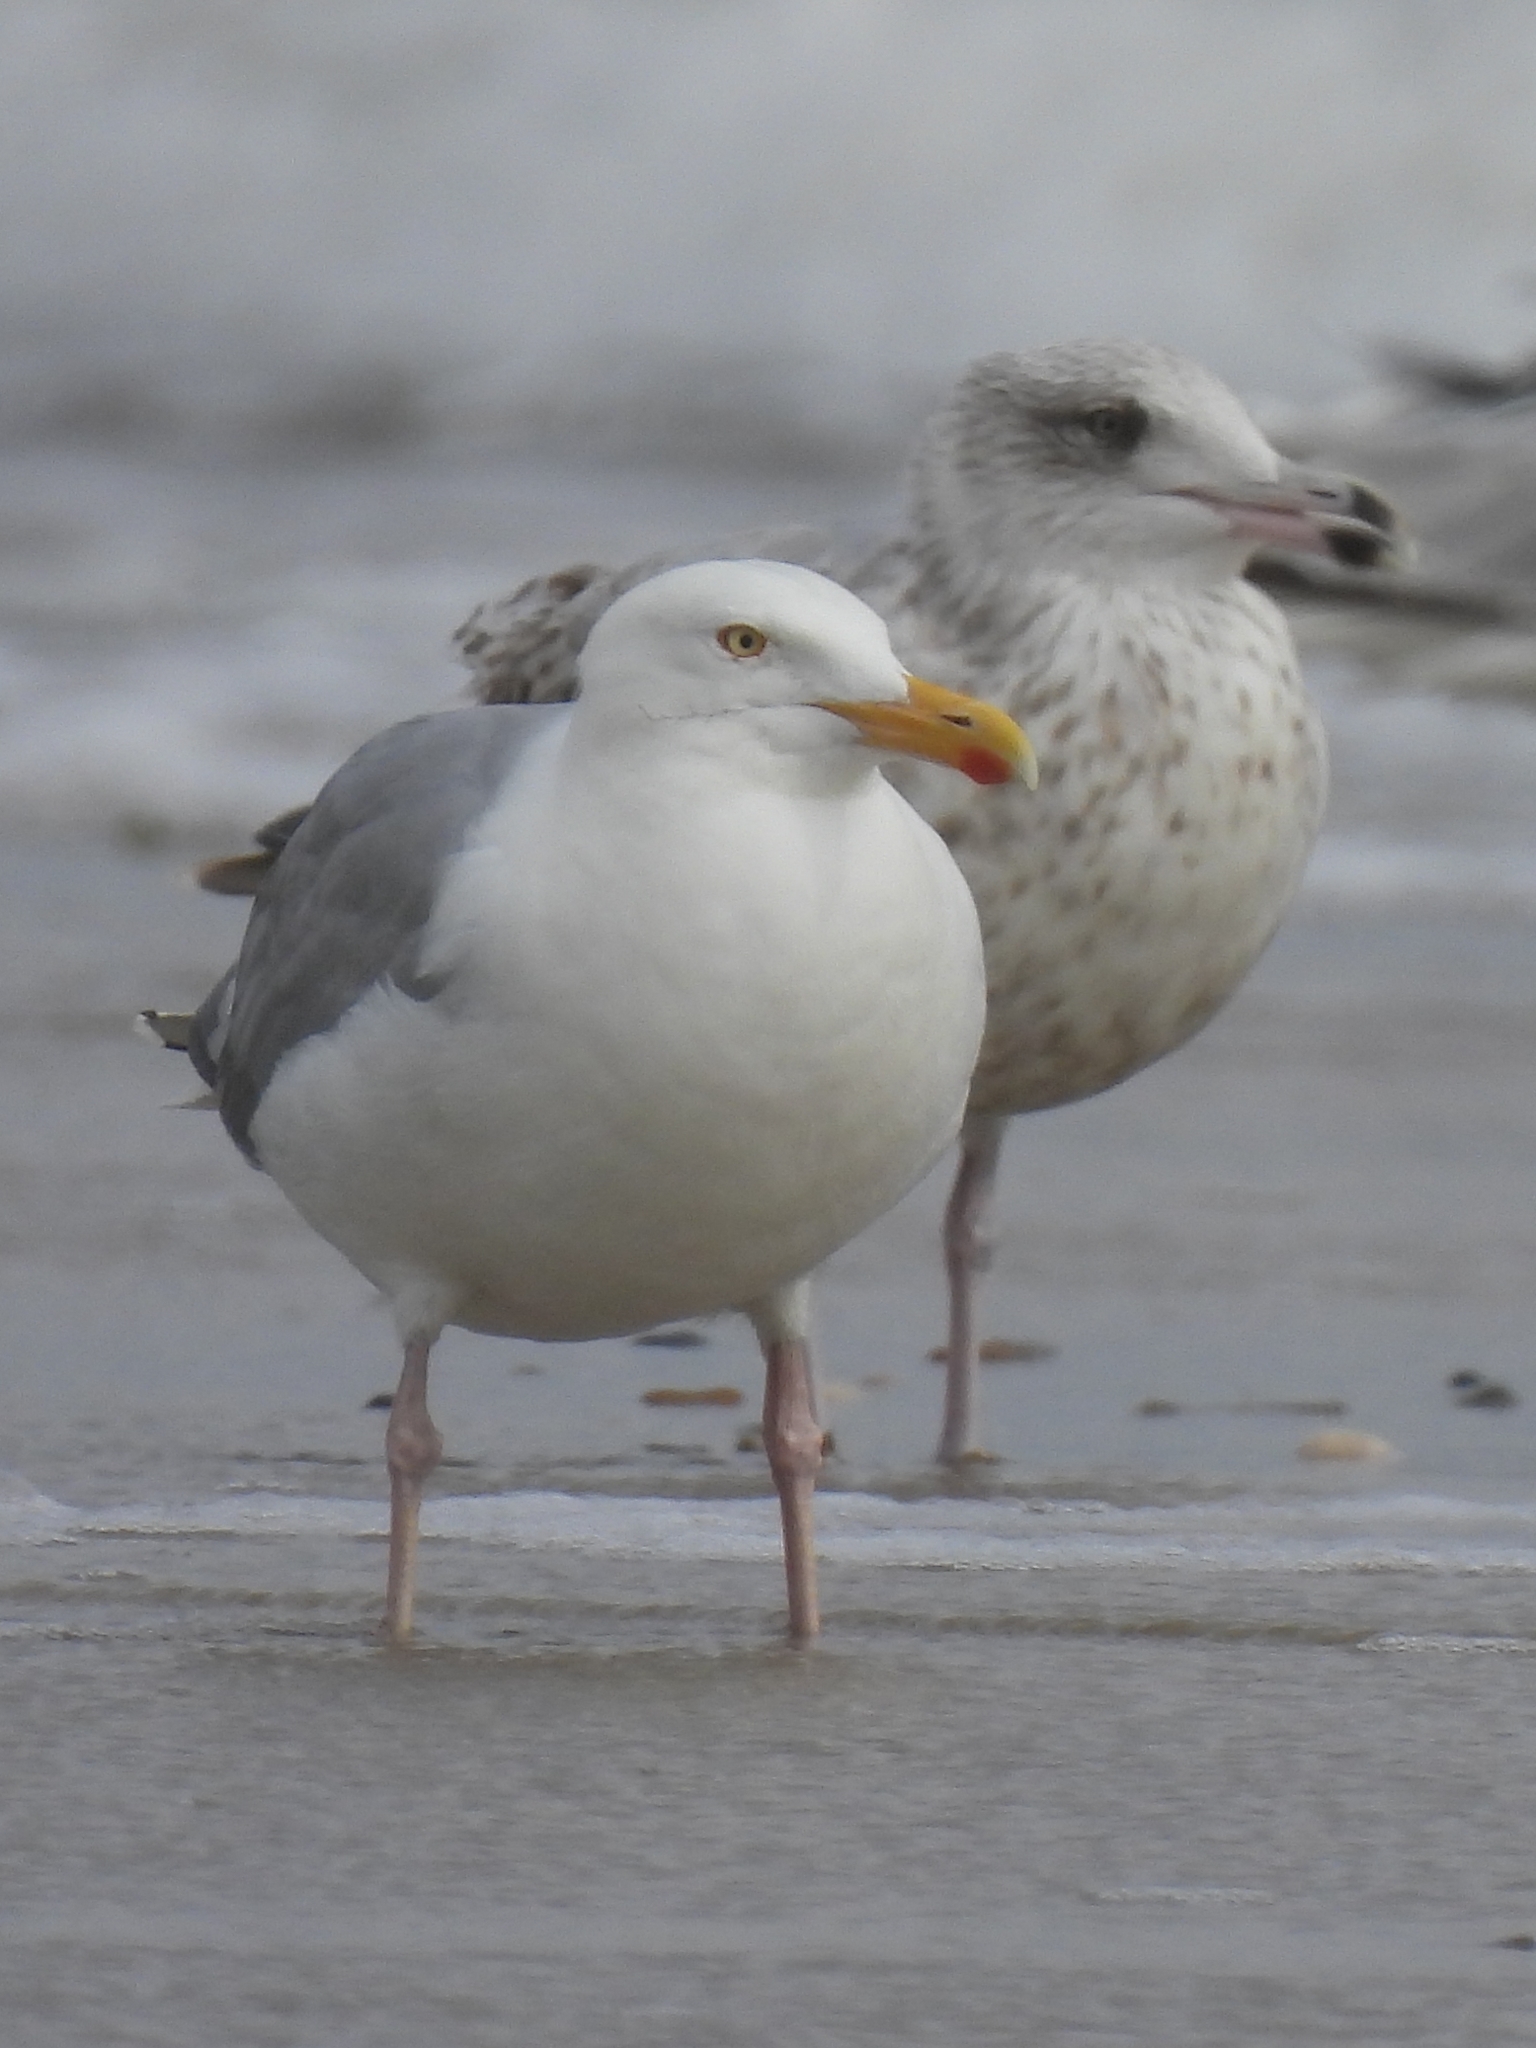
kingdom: Animalia
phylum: Chordata
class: Aves
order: Charadriiformes
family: Laridae
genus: Larus
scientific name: Larus argentatus
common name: Herring gull
